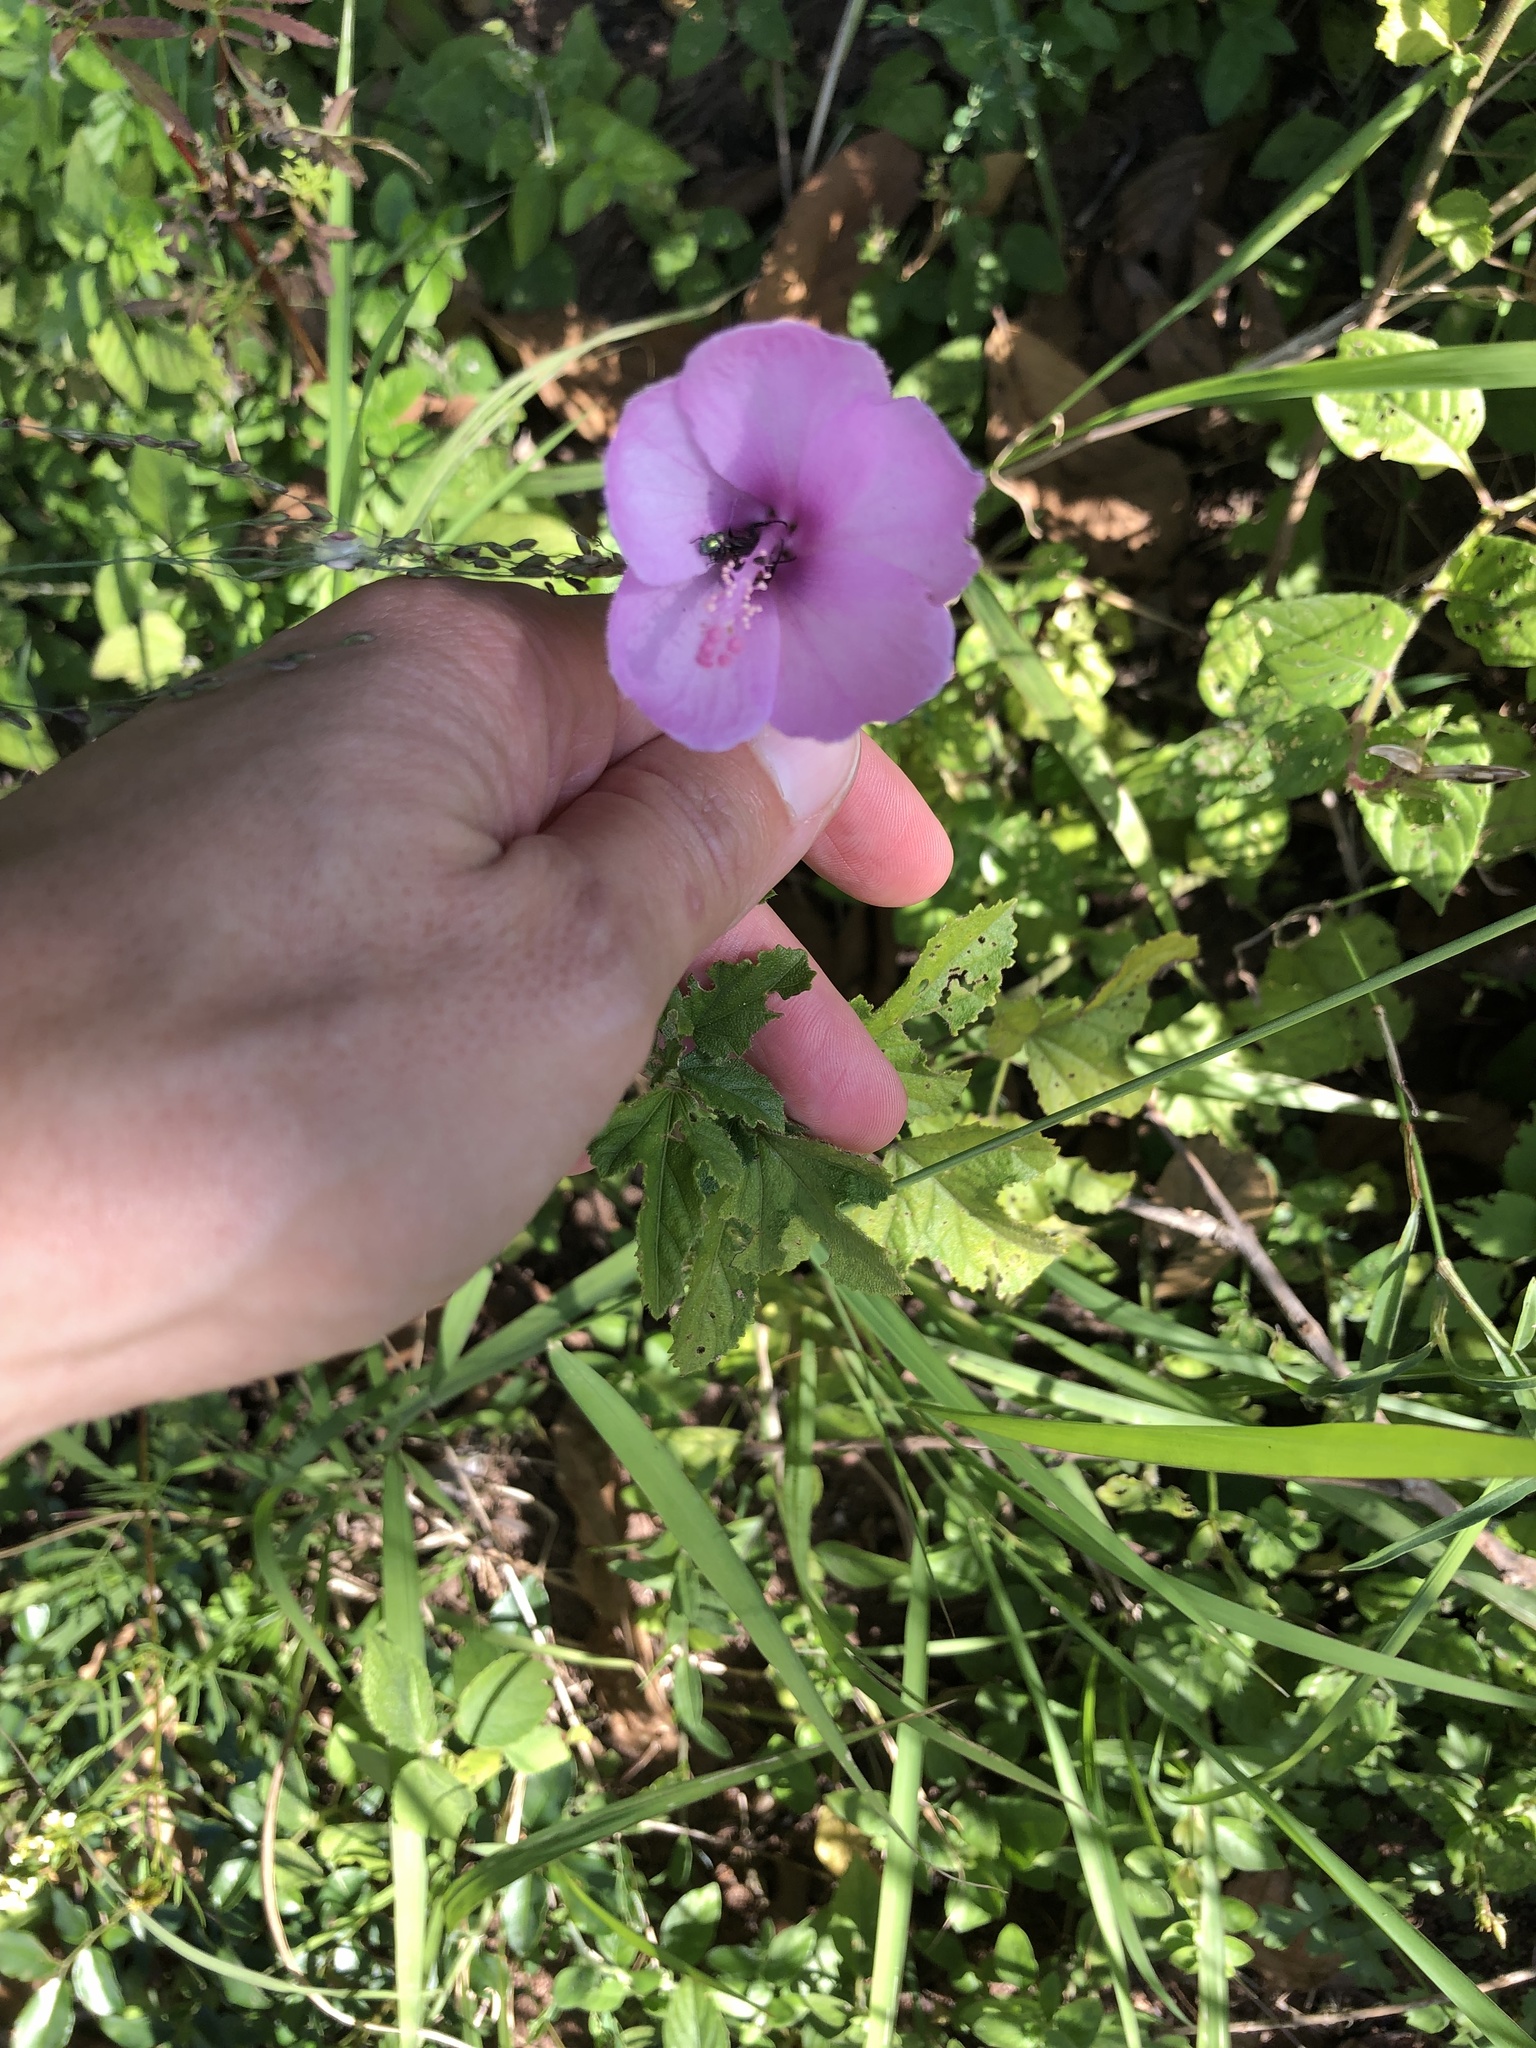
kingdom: Plantae
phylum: Tracheophyta
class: Magnoliopsida
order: Malvales
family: Malvaceae
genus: Hibiscus
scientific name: Hibiscus pedunculatus
